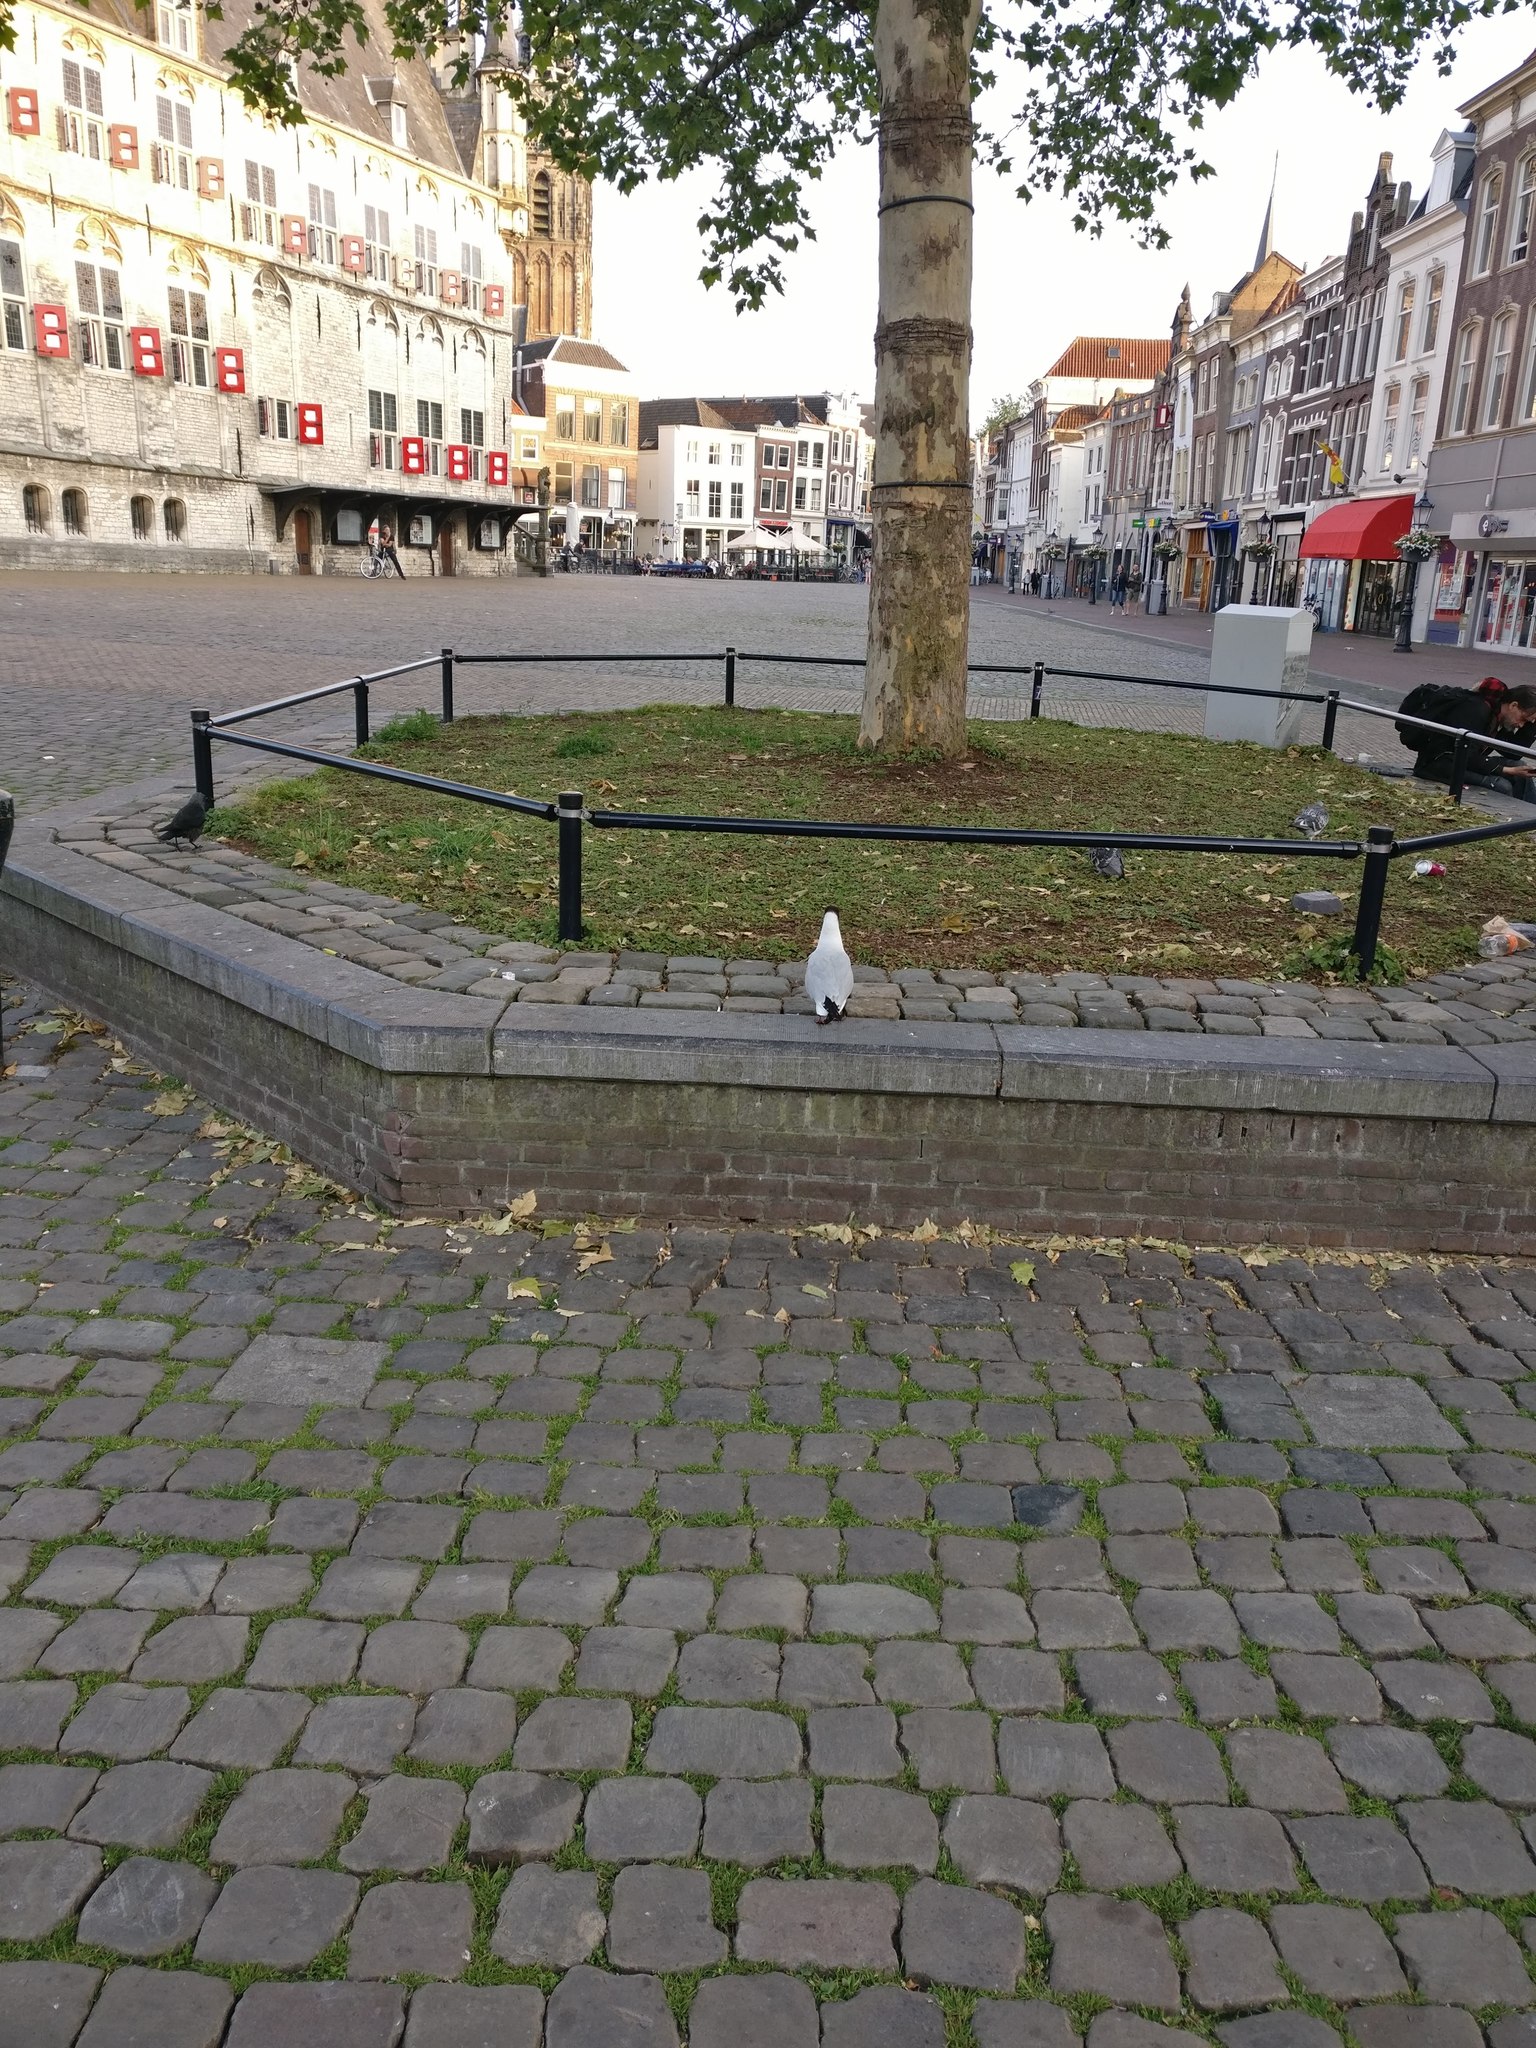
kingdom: Animalia
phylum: Chordata
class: Aves
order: Charadriiformes
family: Laridae
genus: Chroicocephalus
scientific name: Chroicocephalus ridibundus
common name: Black-headed gull
